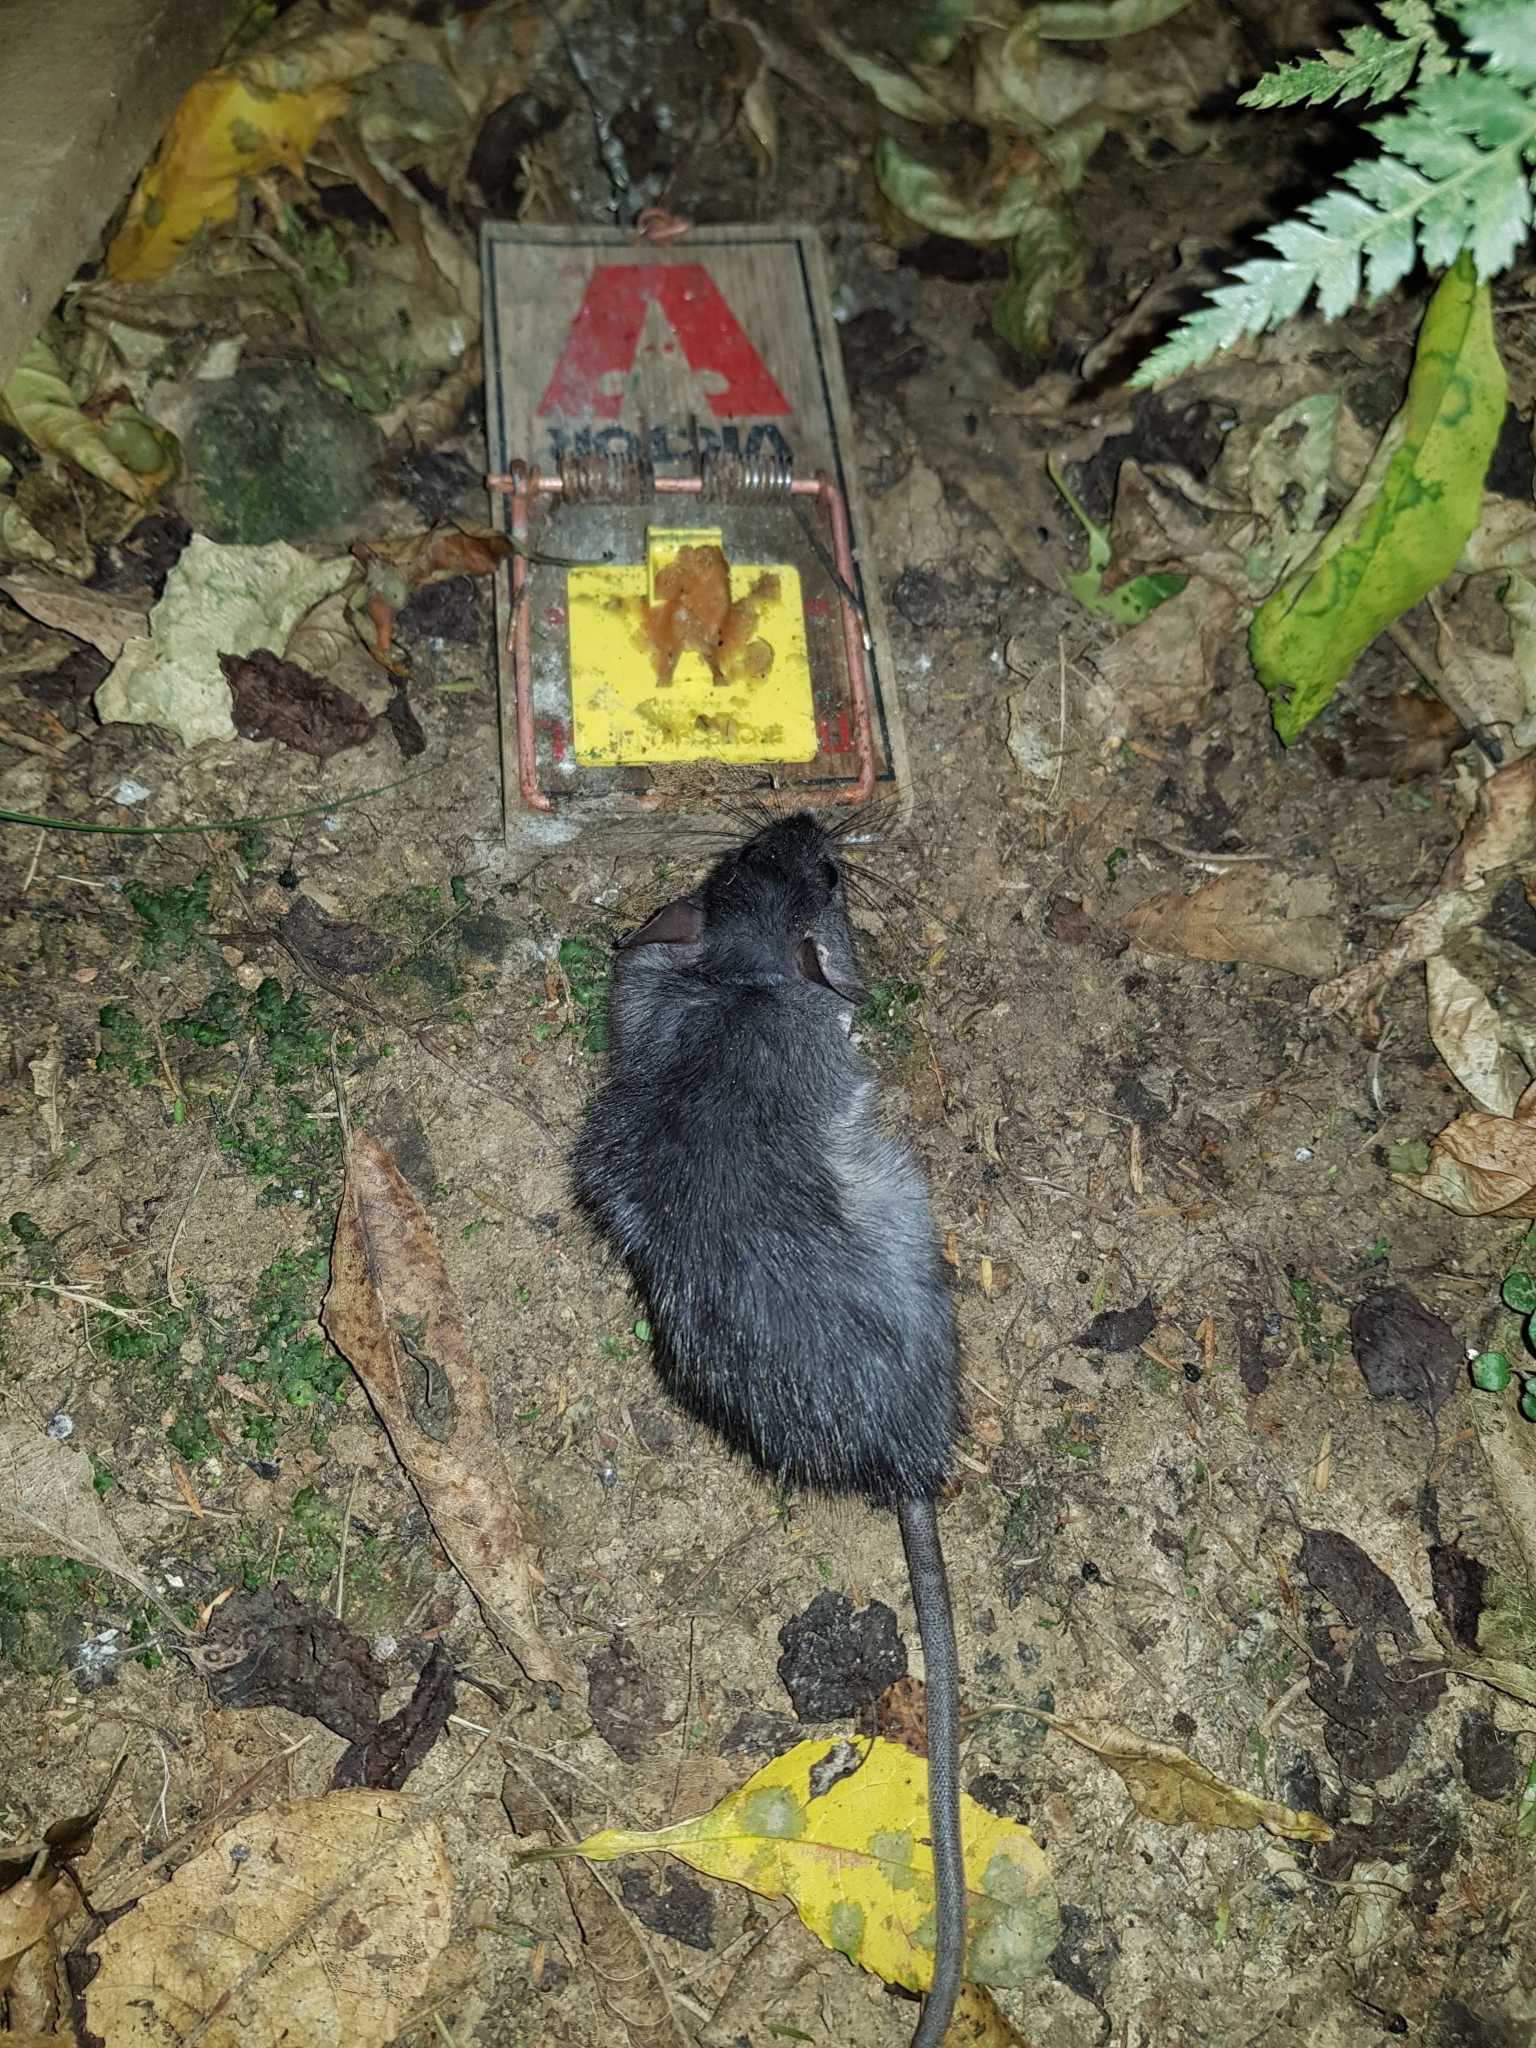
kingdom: Animalia
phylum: Chordata
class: Mammalia
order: Rodentia
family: Muridae
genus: Rattus
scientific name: Rattus rattus
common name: Black rat
